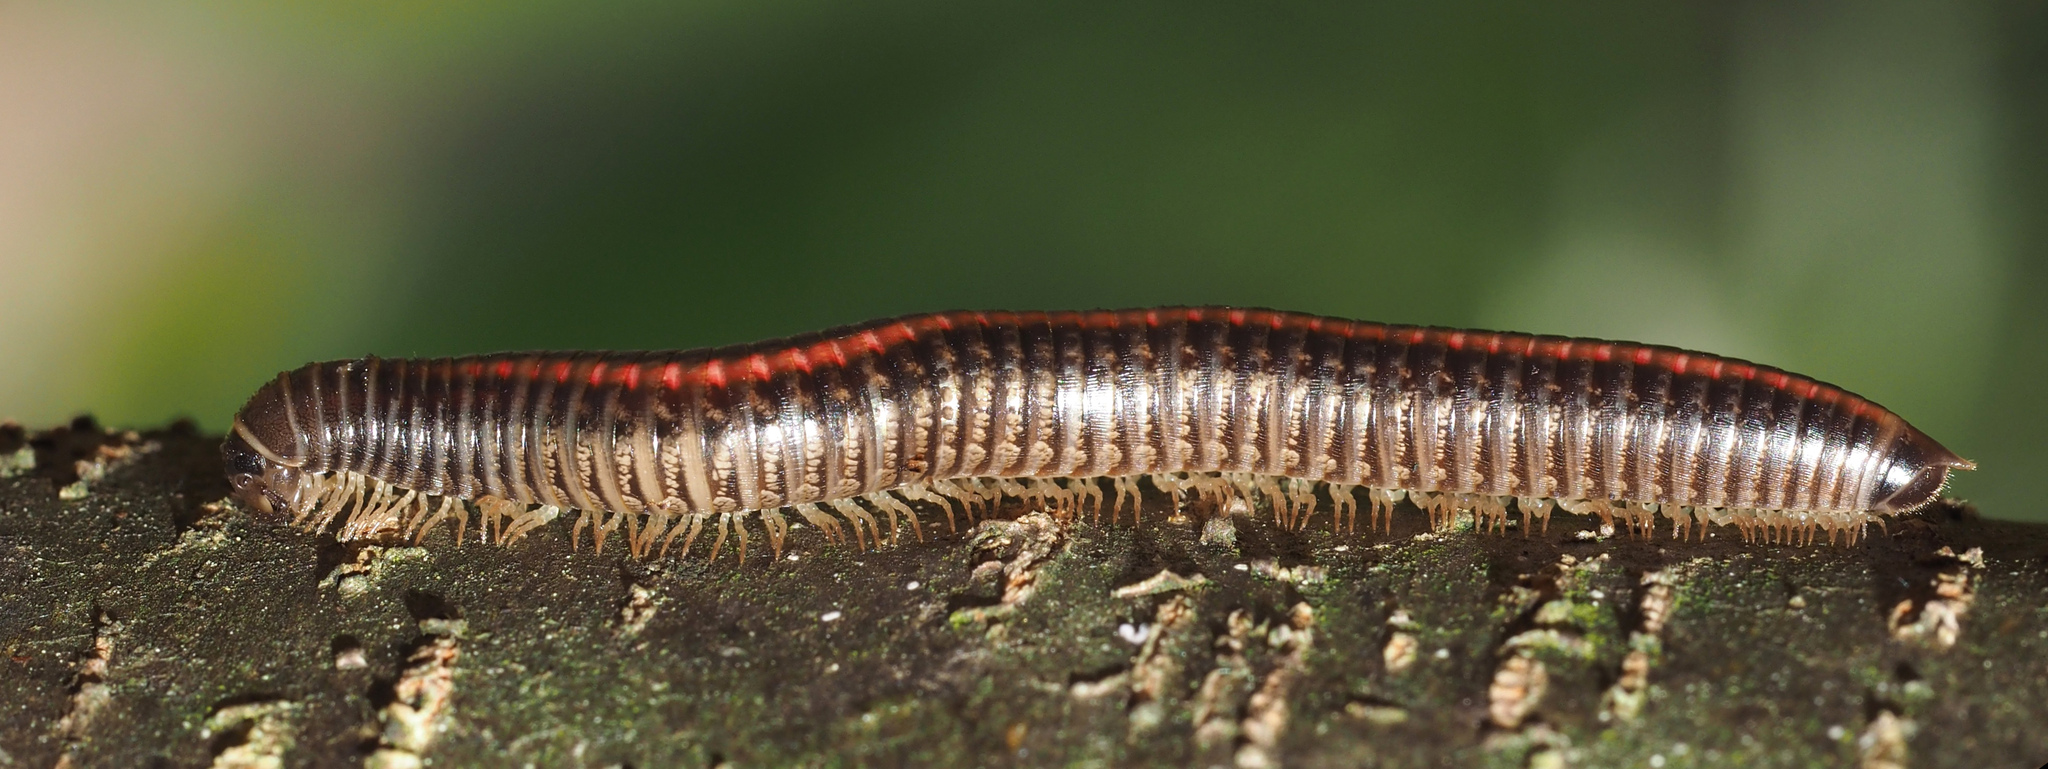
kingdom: Animalia
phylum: Arthropoda
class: Diplopoda
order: Julida
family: Julidae
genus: Ommatoiulus
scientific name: Ommatoiulus sabulosus
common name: Striped millipede
